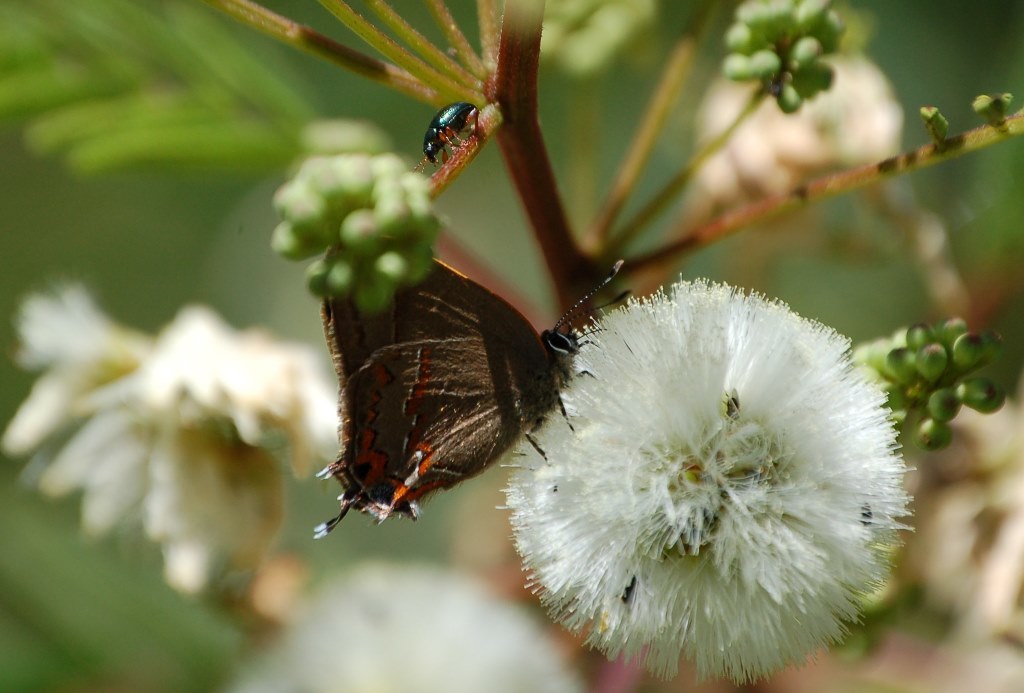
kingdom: Animalia
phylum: Arthropoda
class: Insecta
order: Lepidoptera
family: Lycaenidae
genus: Electrostrymon
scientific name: Electrostrymon
